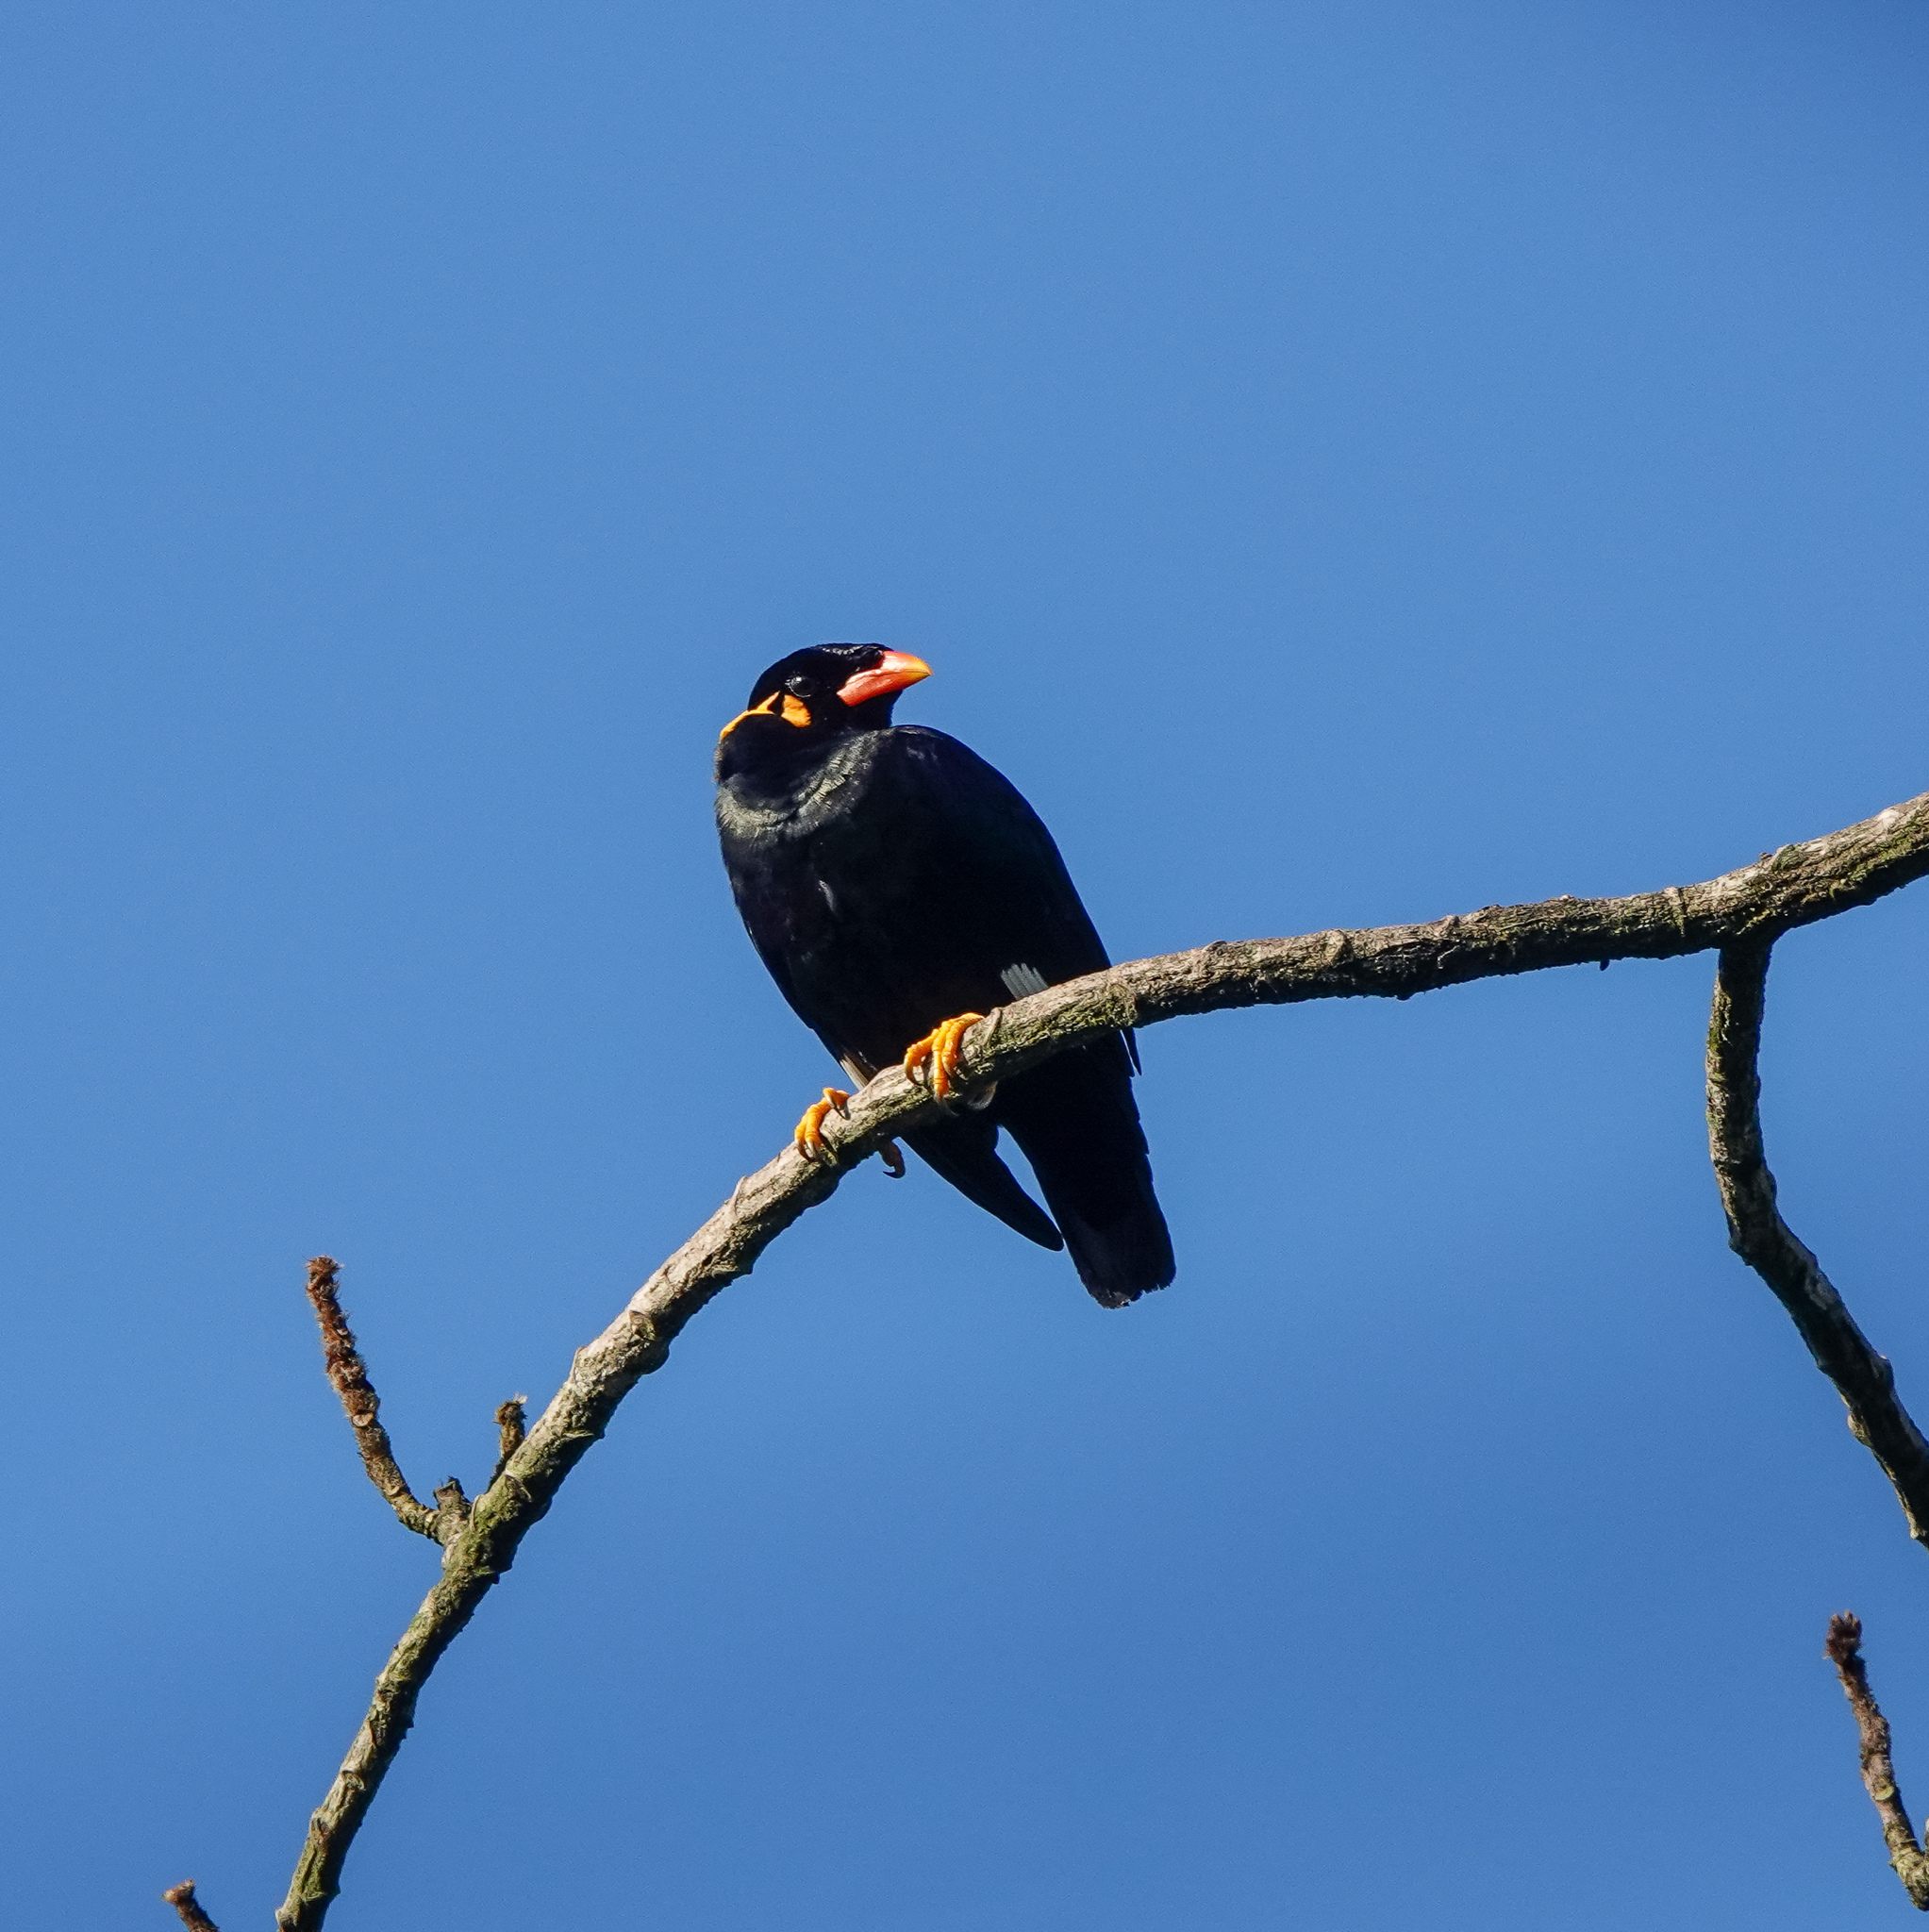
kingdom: Animalia
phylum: Chordata
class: Aves
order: Passeriformes
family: Sturnidae
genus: Gracula
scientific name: Gracula religiosa
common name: Common hill myna
